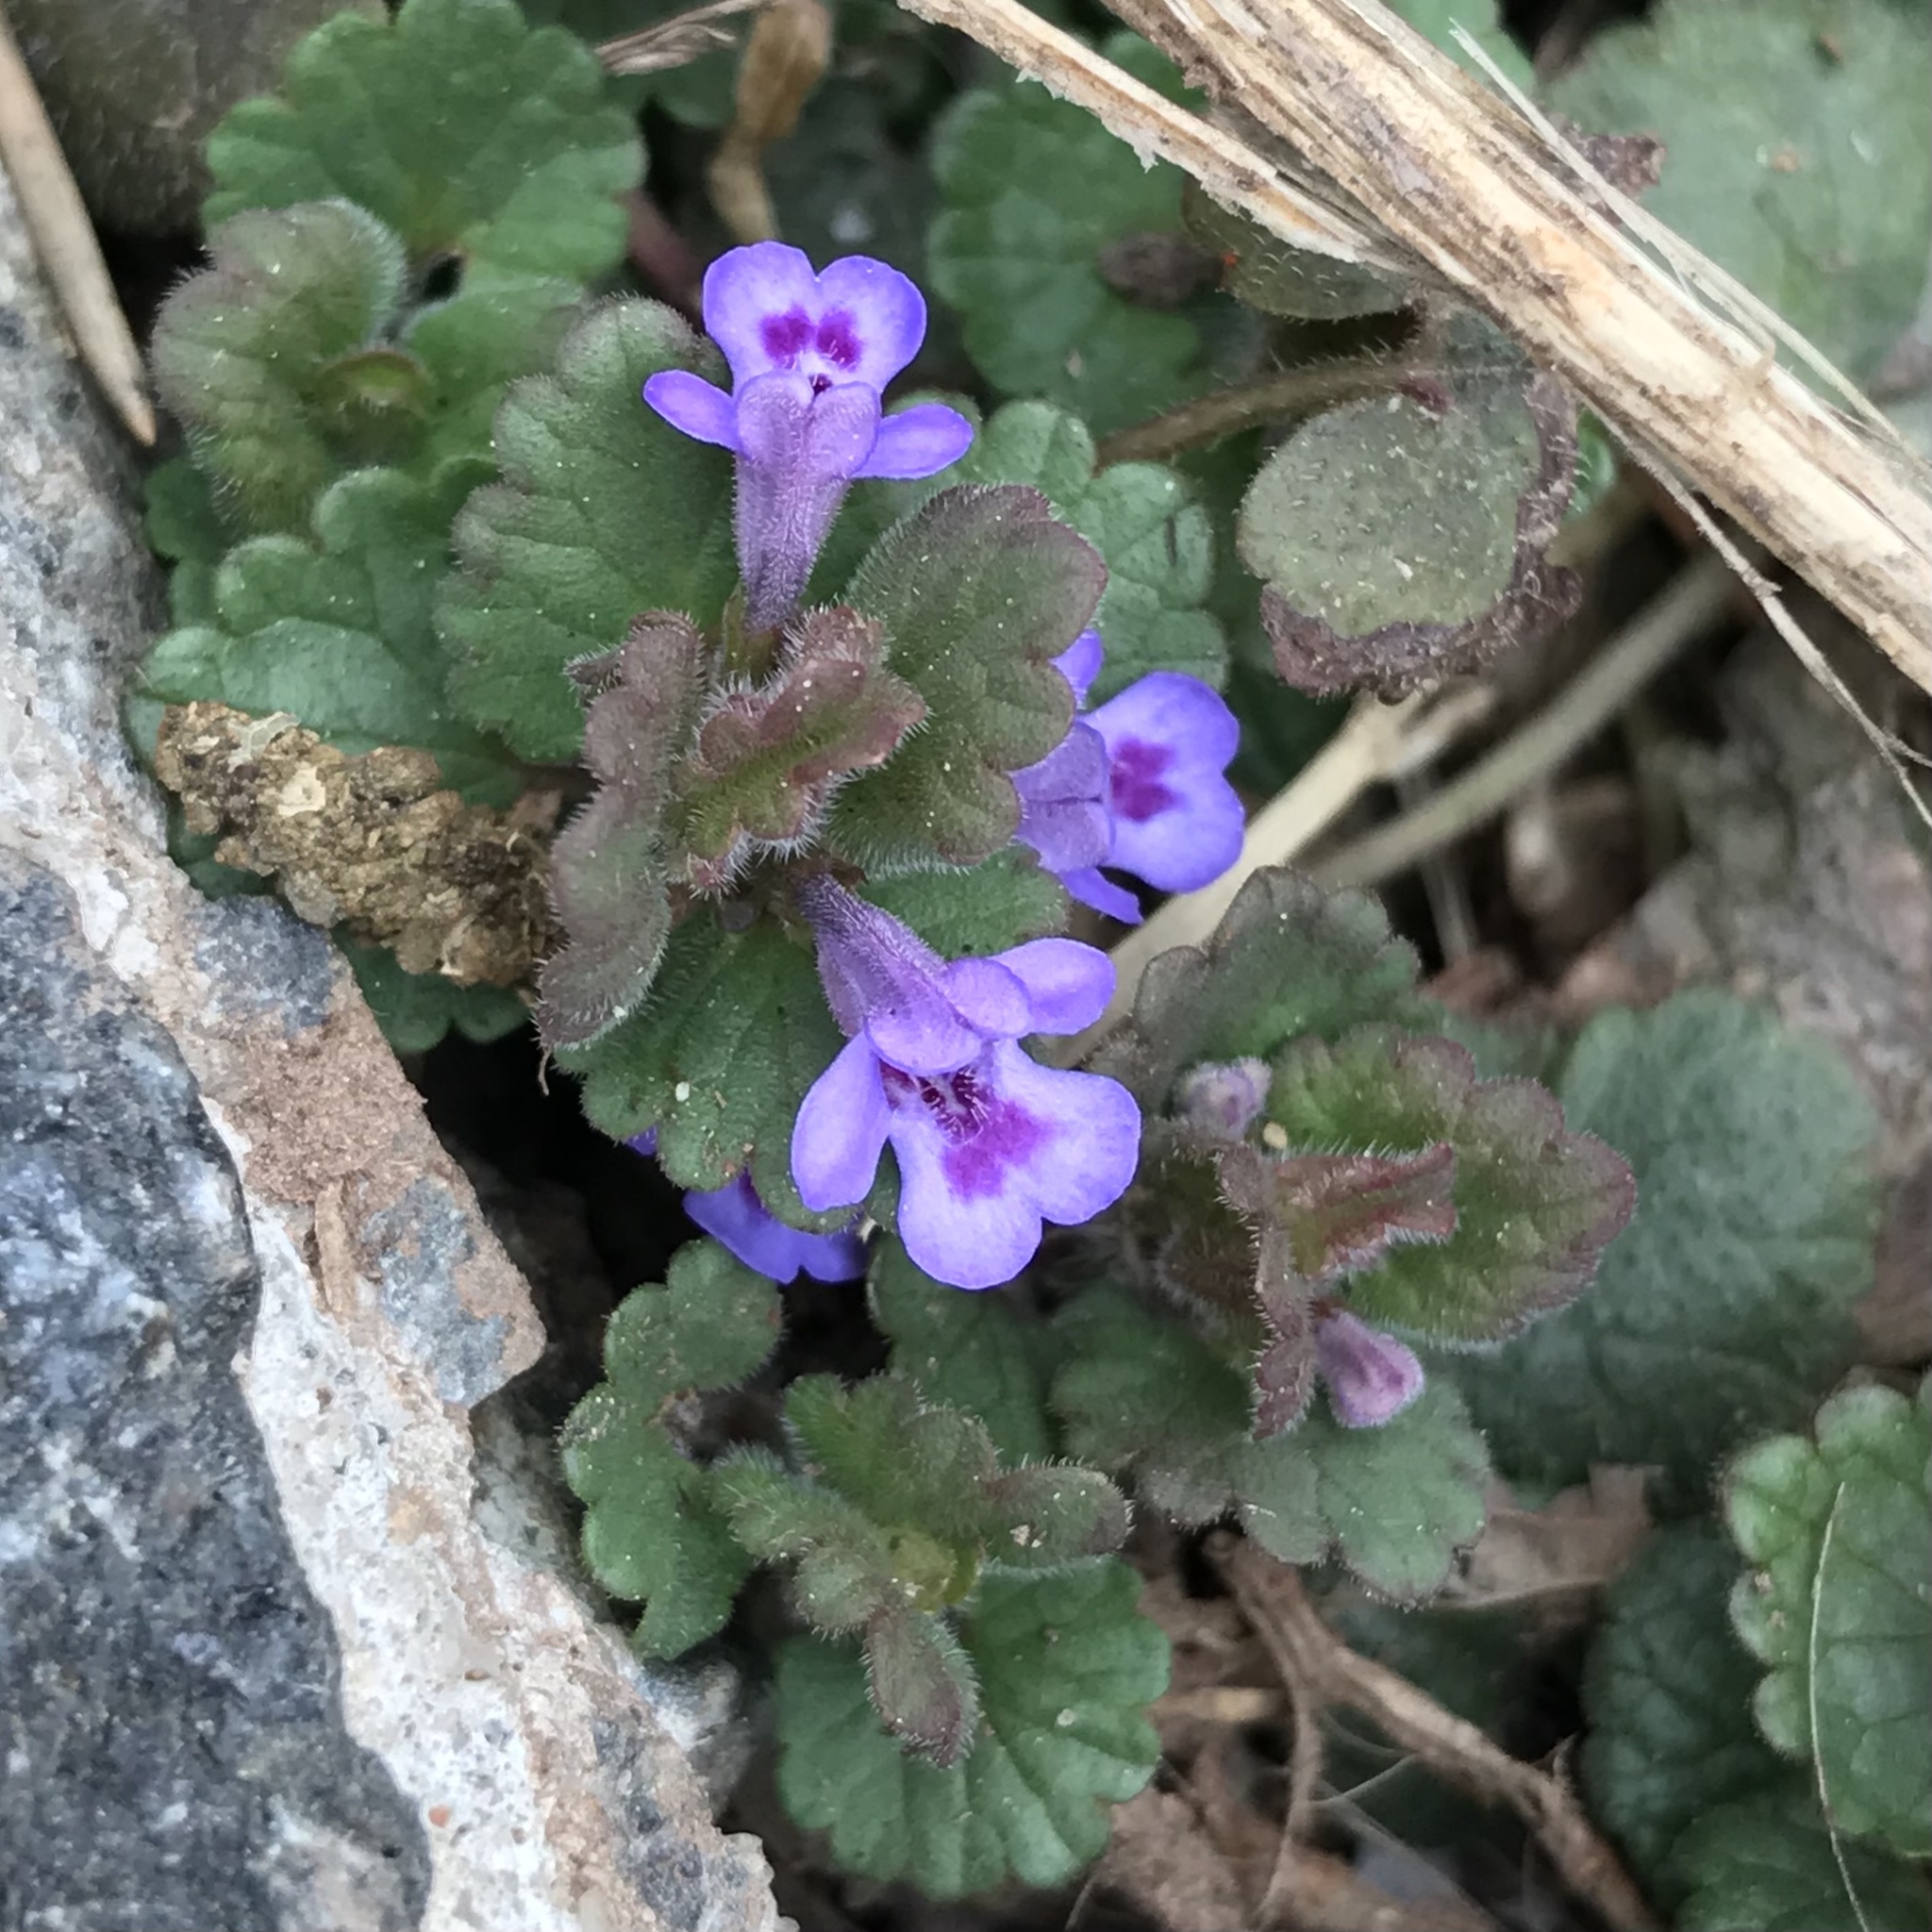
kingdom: Plantae
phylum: Tracheophyta
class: Magnoliopsida
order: Lamiales
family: Lamiaceae
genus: Glechoma
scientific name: Glechoma hederacea
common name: Ground ivy
